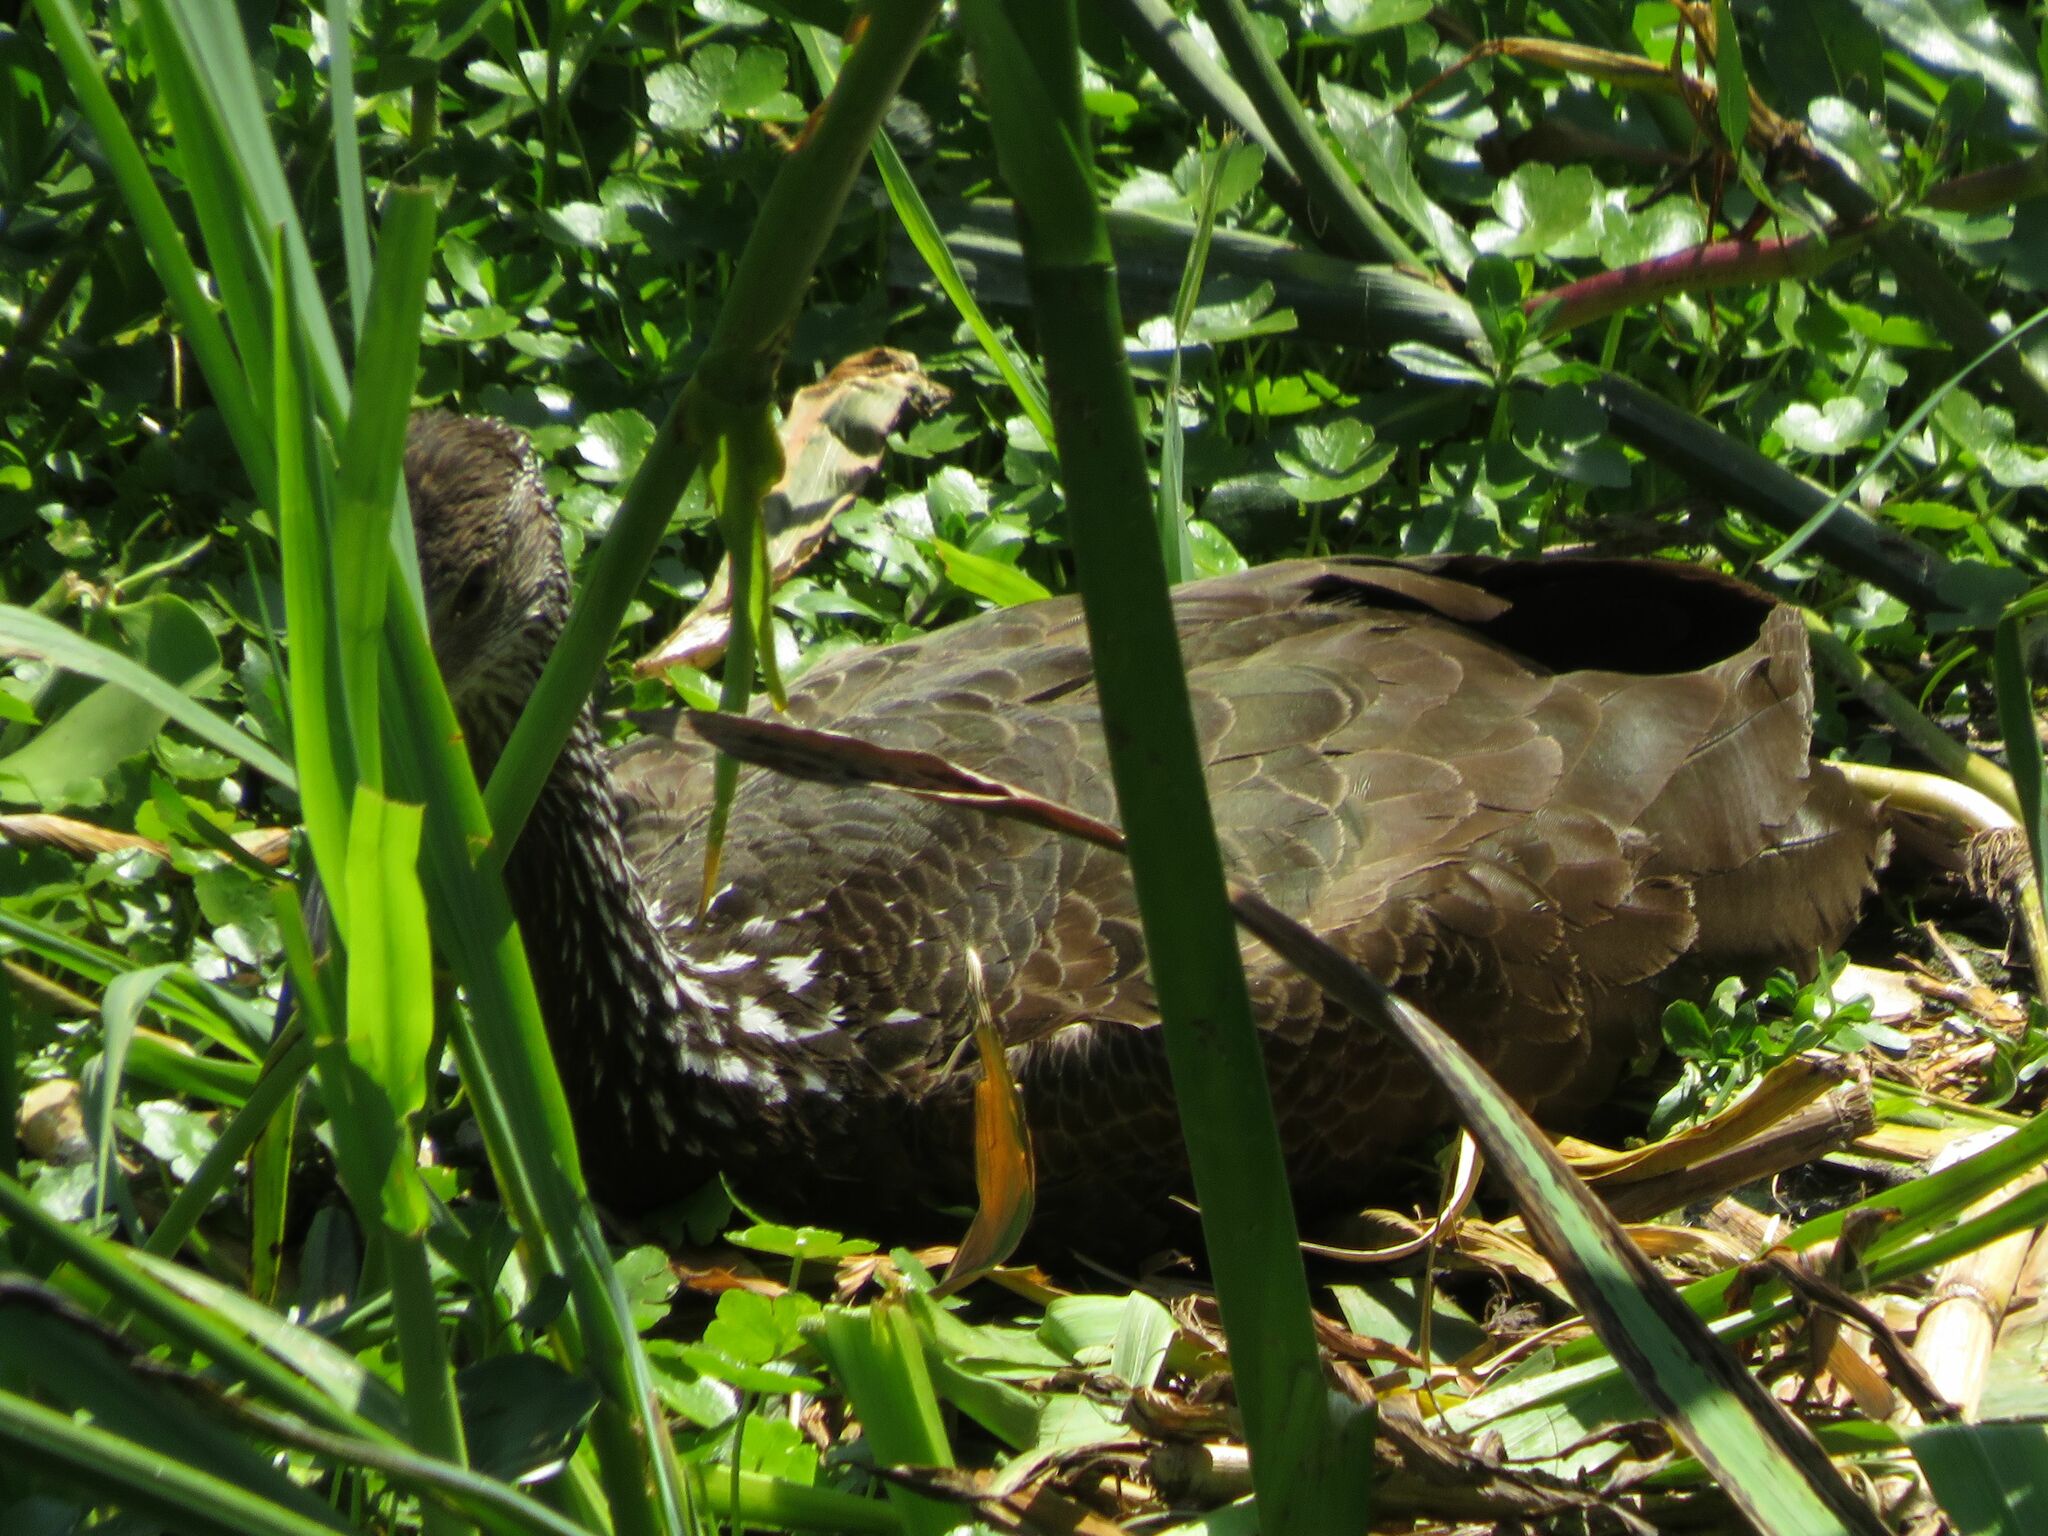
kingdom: Animalia
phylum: Chordata
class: Aves
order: Gruiformes
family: Aramidae
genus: Aramus
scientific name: Aramus guarauna
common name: Limpkin
